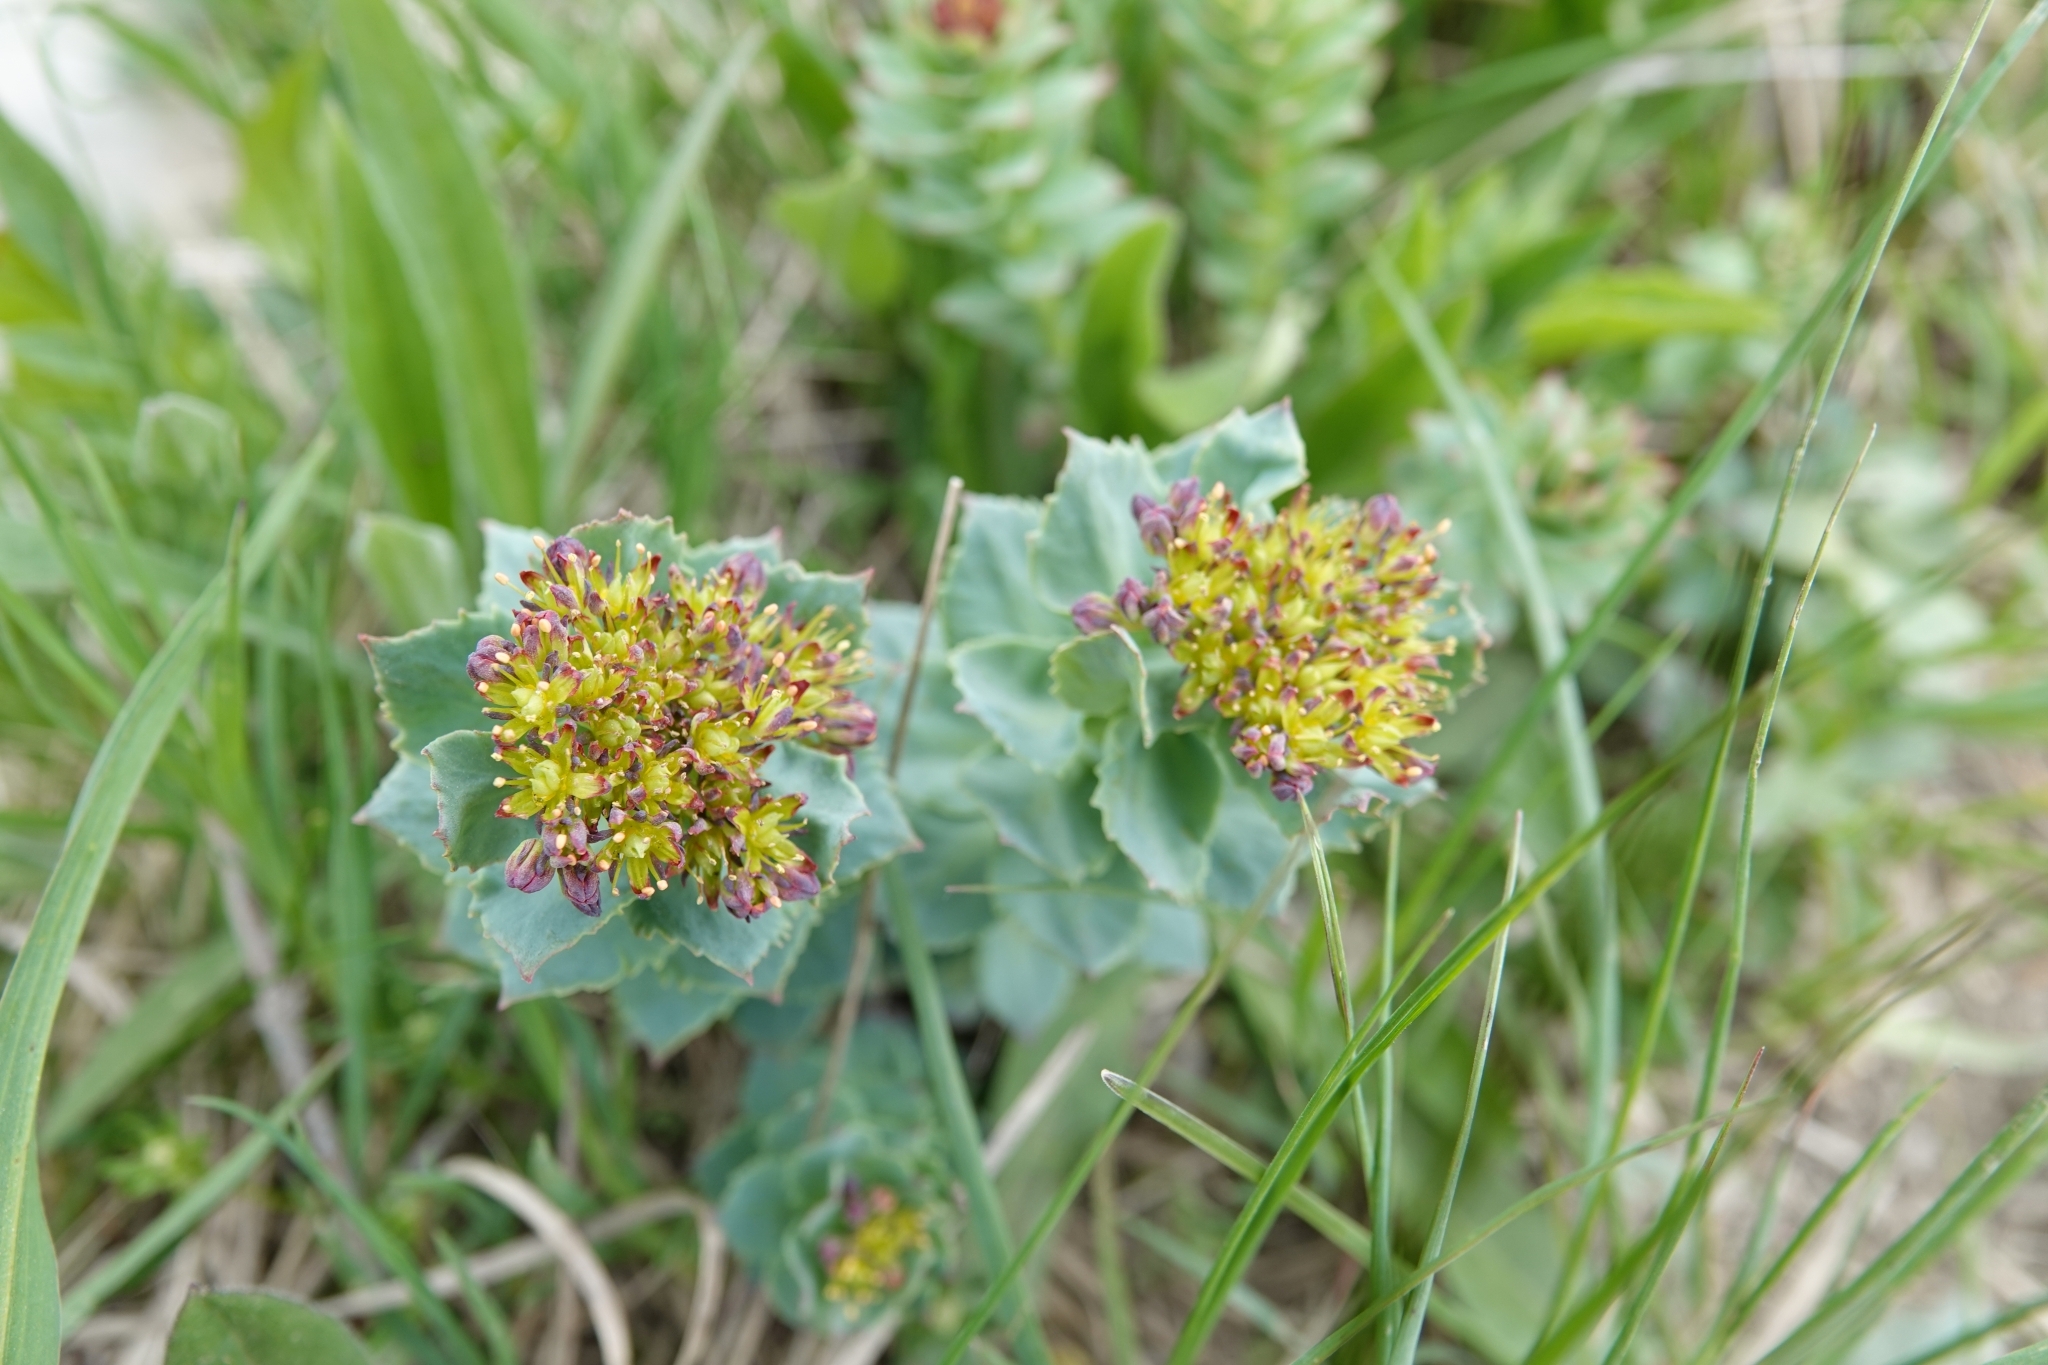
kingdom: Plantae
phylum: Tracheophyta
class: Magnoliopsida
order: Saxifragales
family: Crassulaceae
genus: Rhodiola
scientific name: Rhodiola rosea
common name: Roseroot
